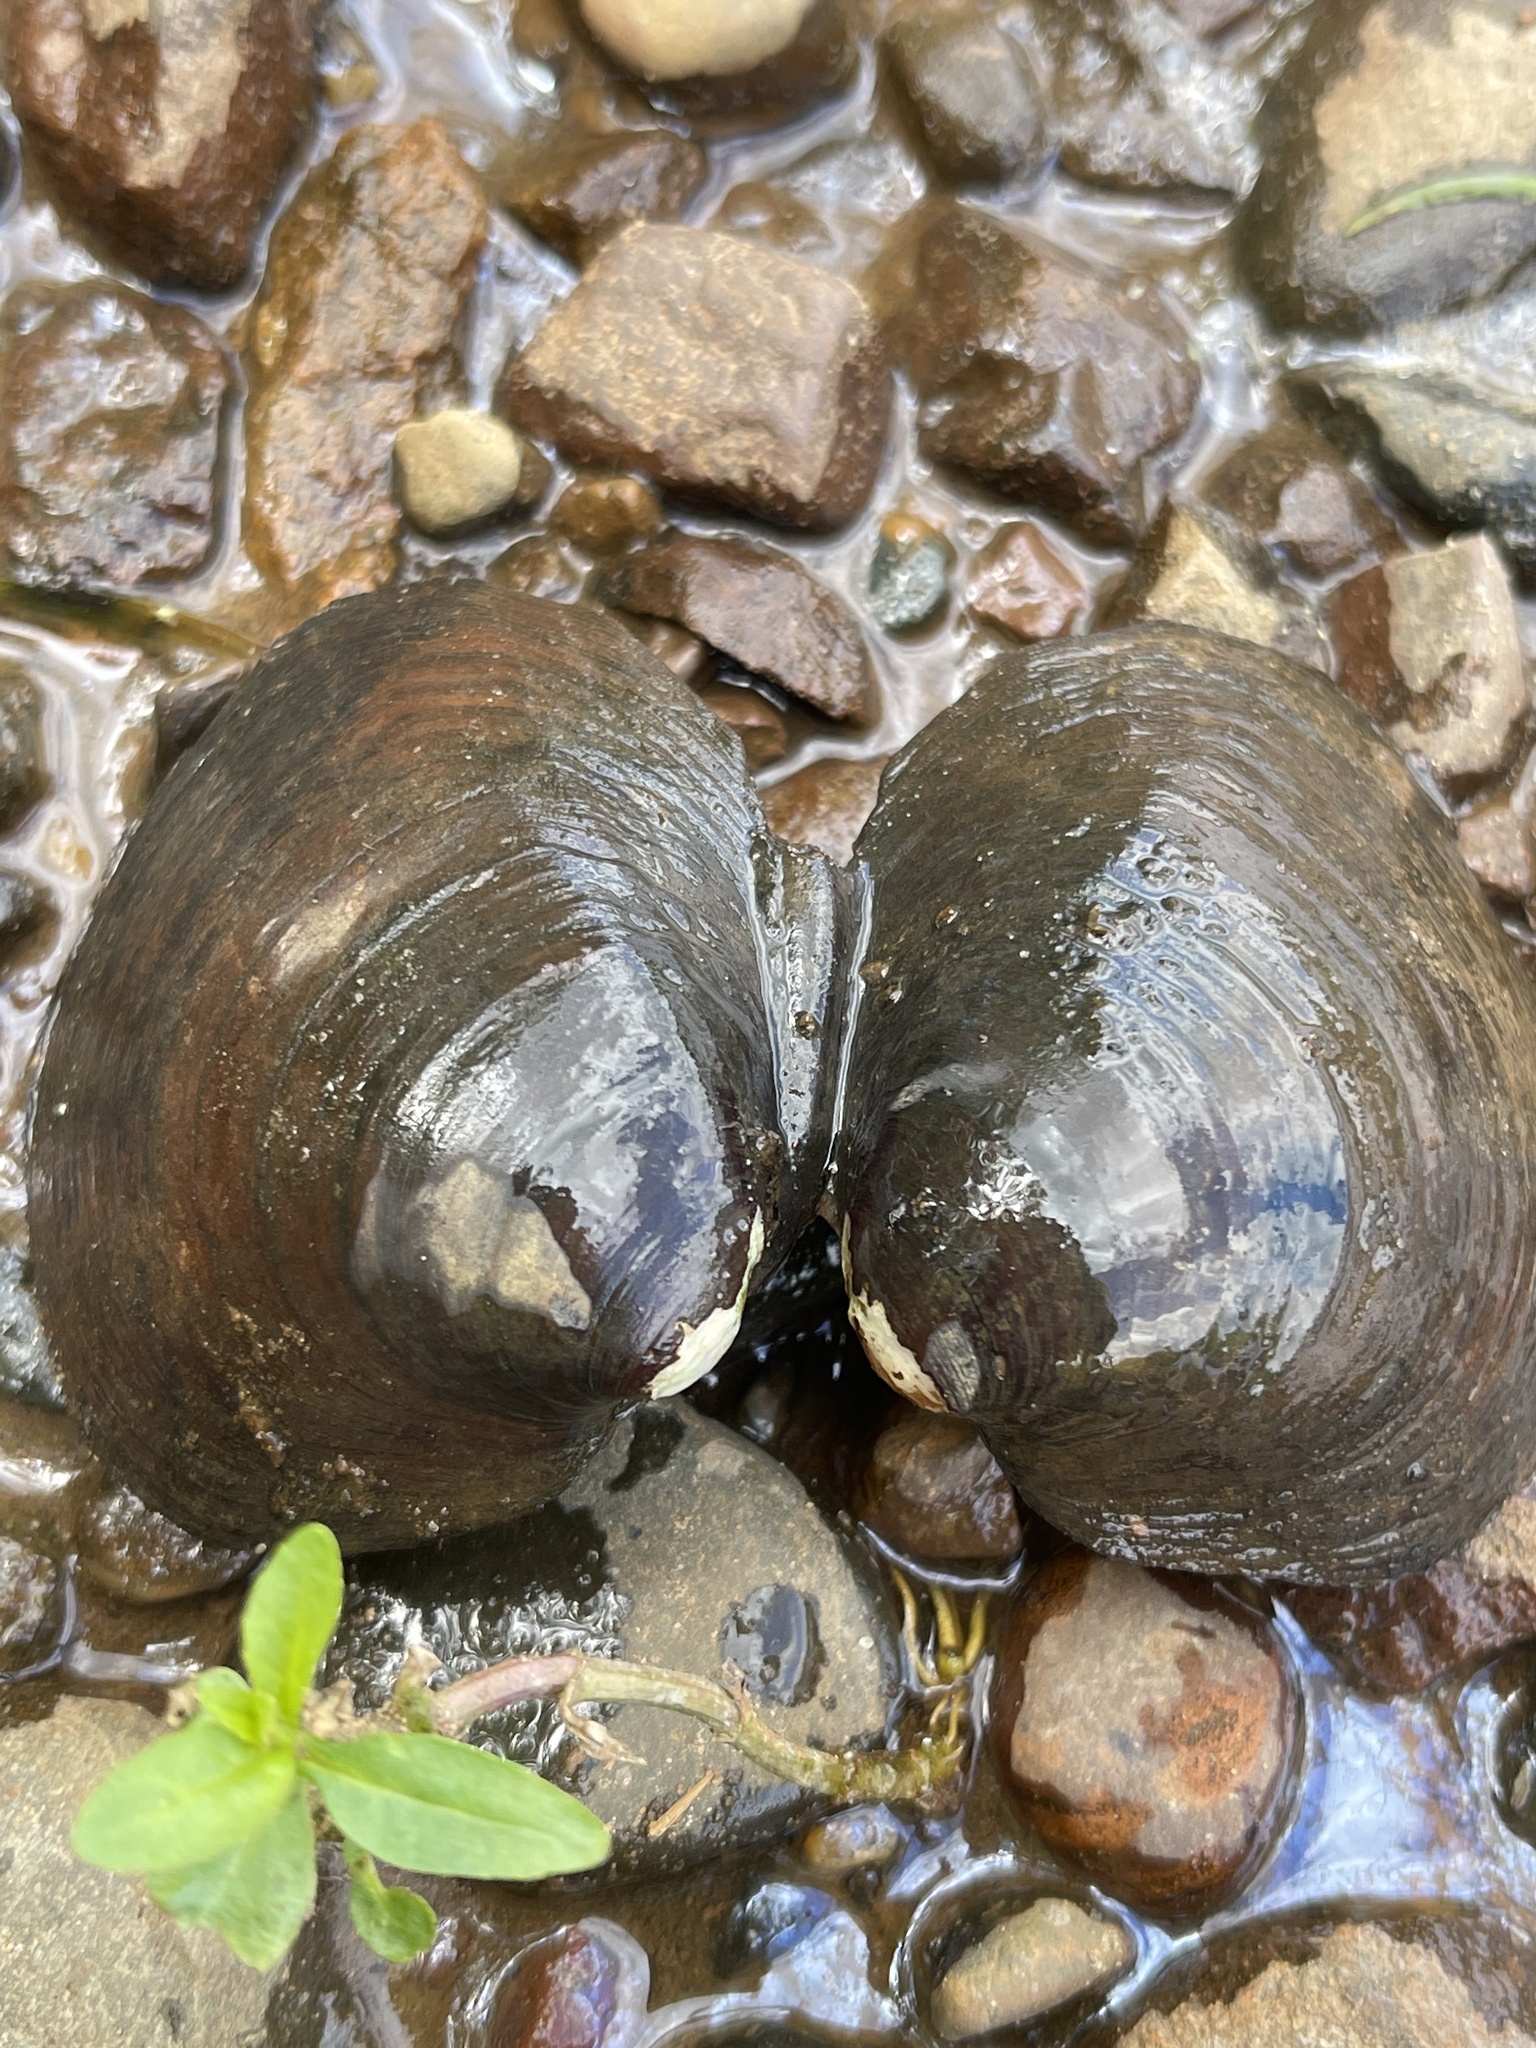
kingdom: Animalia
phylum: Mollusca
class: Bivalvia
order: Unionida
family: Unionidae
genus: Pleurobema
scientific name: Pleurobema sintoxia
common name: Round pigtoe
